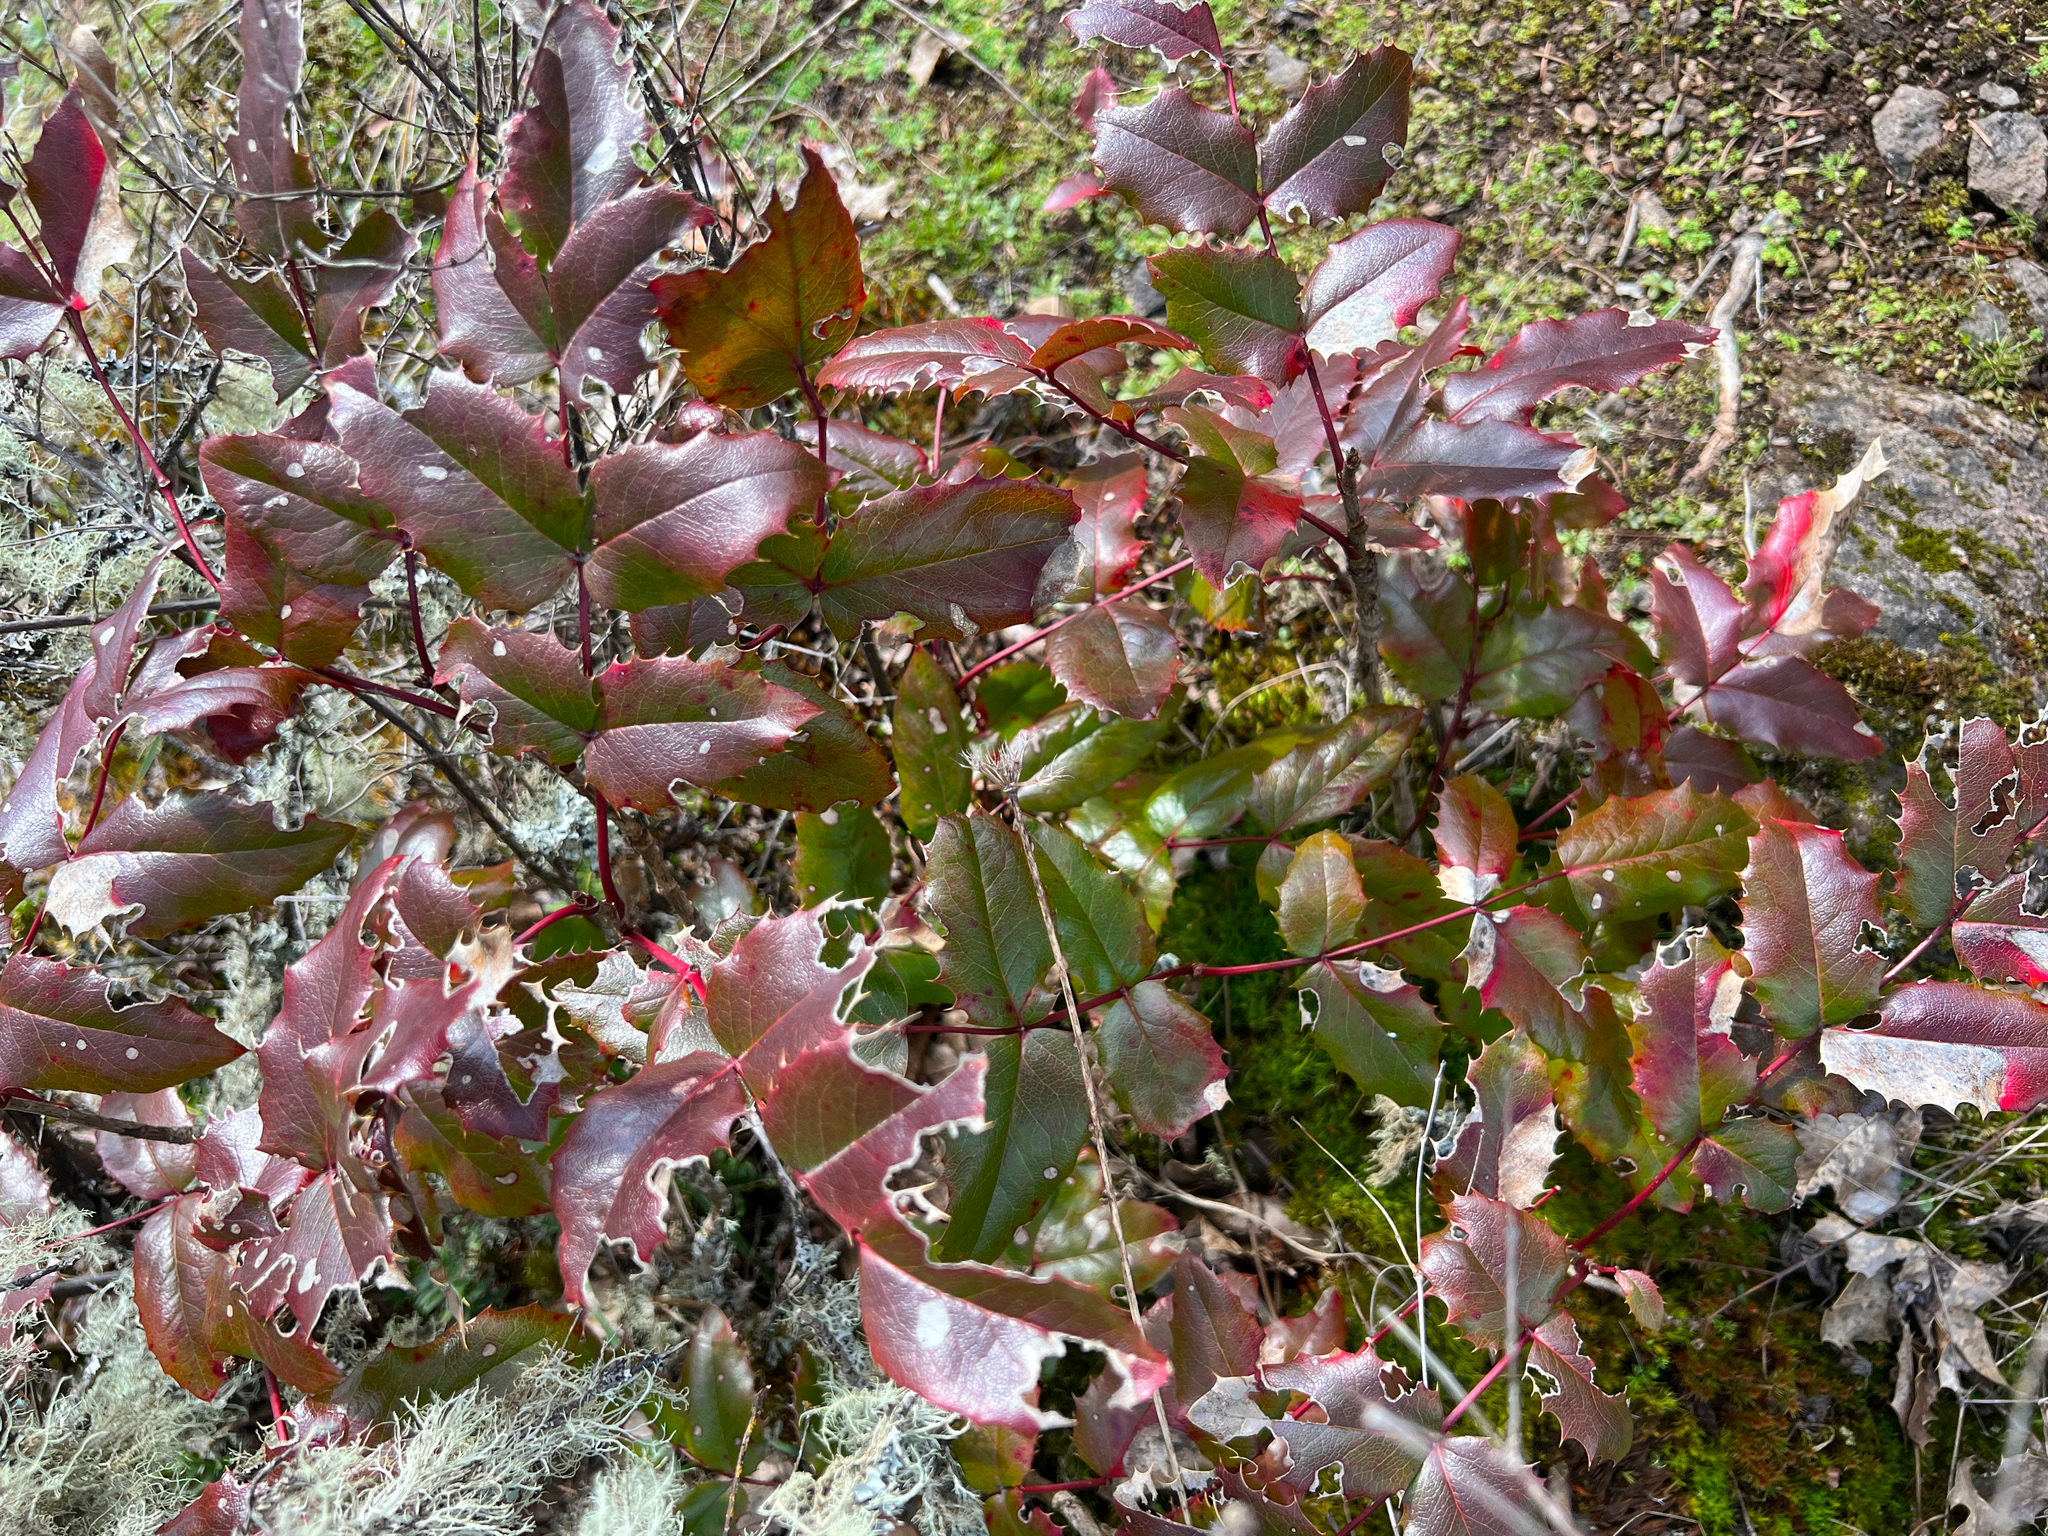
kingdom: Plantae
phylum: Tracheophyta
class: Magnoliopsida
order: Ranunculales
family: Berberidaceae
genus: Mahonia
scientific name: Mahonia aquifolium
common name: Oregon-grape
